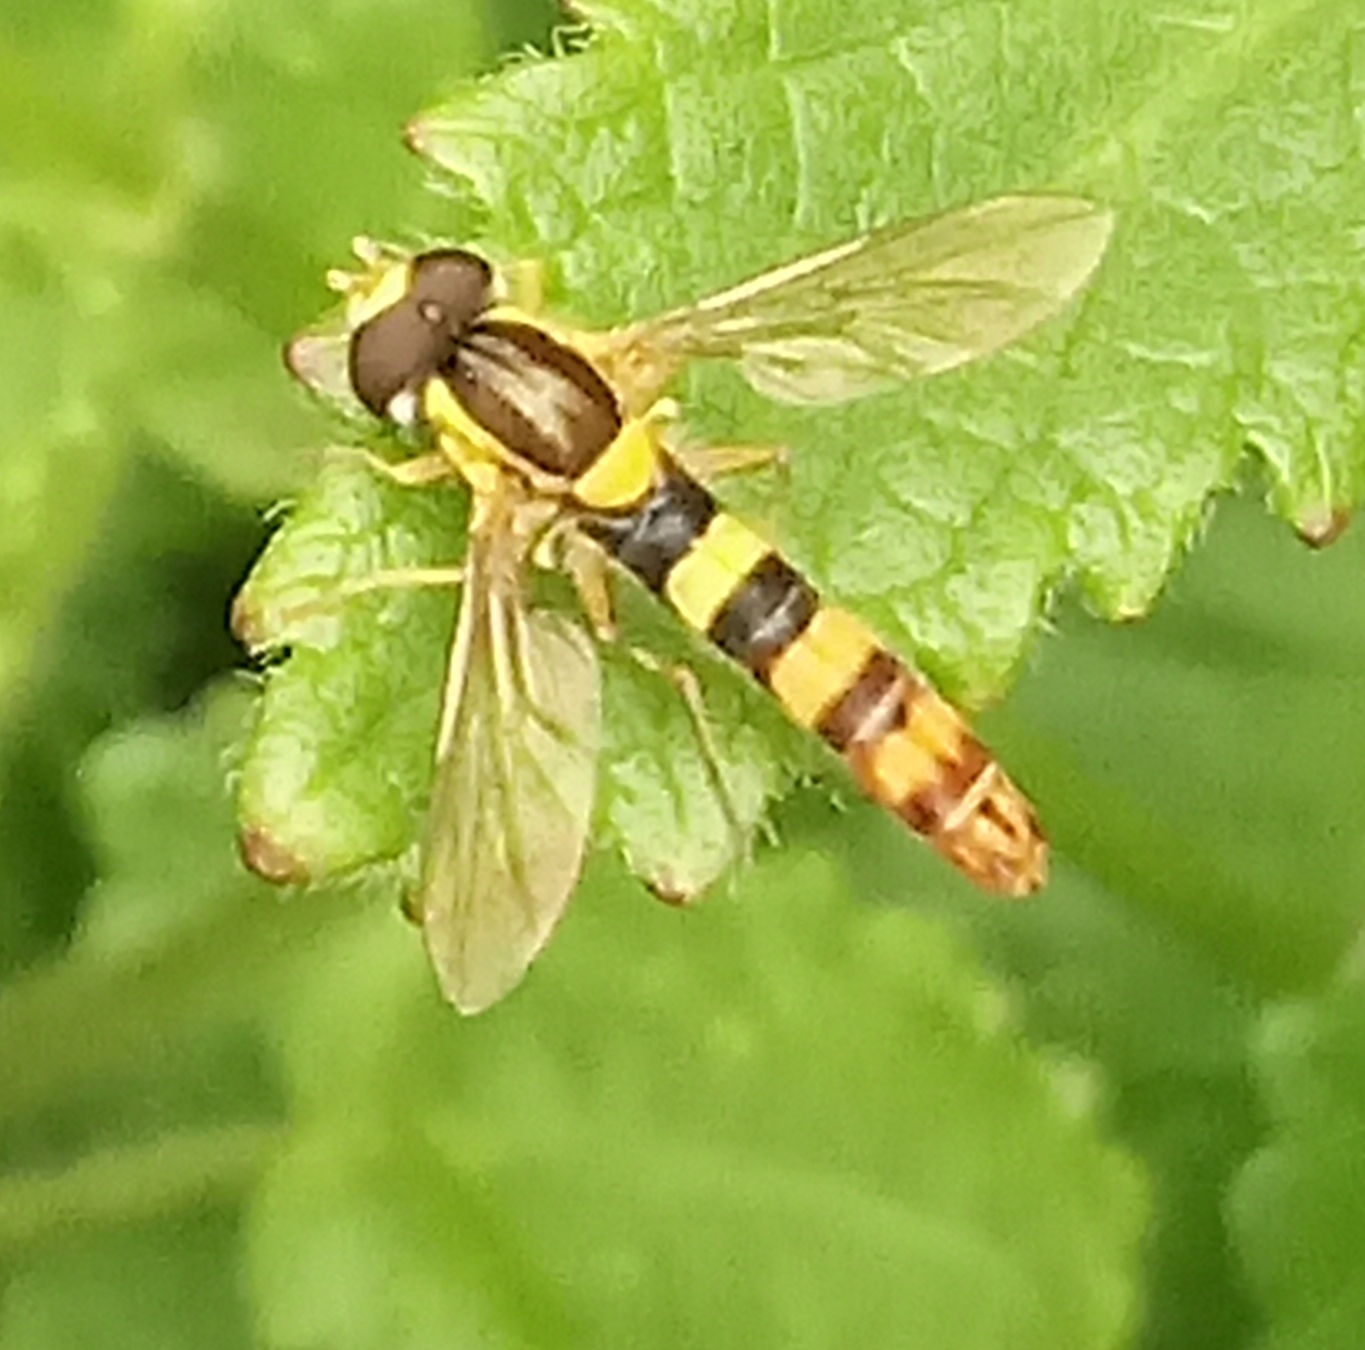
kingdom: Animalia
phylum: Arthropoda
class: Insecta
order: Diptera
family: Syrphidae
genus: Sphaerophoria
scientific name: Sphaerophoria scripta
